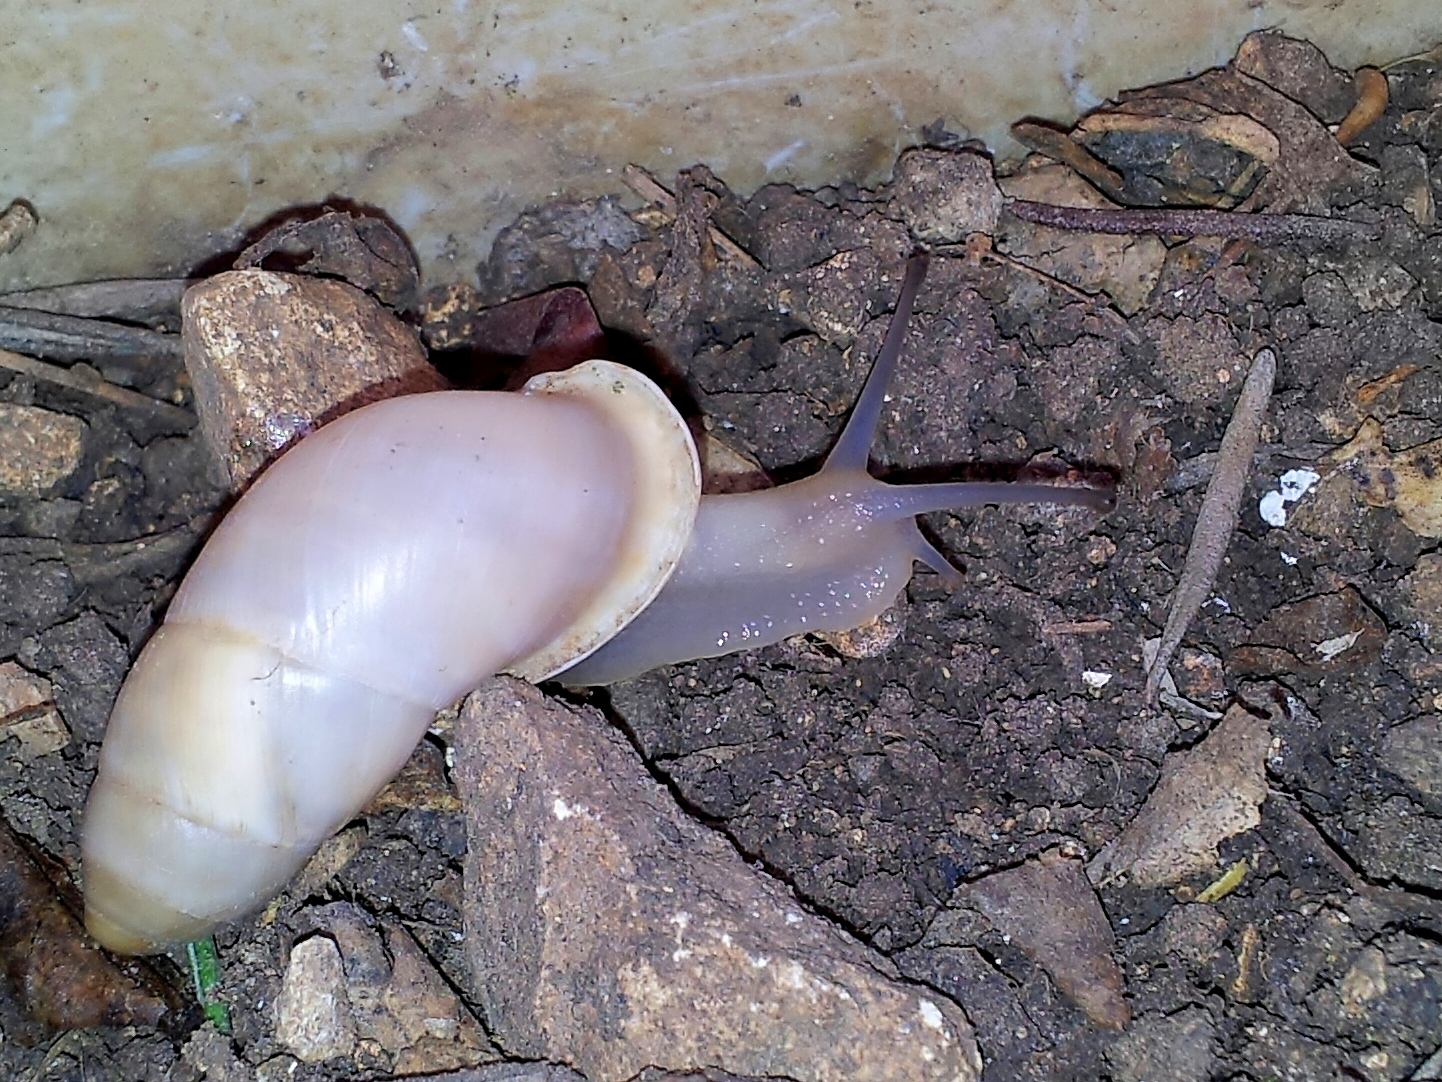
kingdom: Animalia
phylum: Mollusca
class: Gastropoda
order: Stylommatophora
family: Enidae
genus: Buliminus
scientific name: Buliminus labrosus
